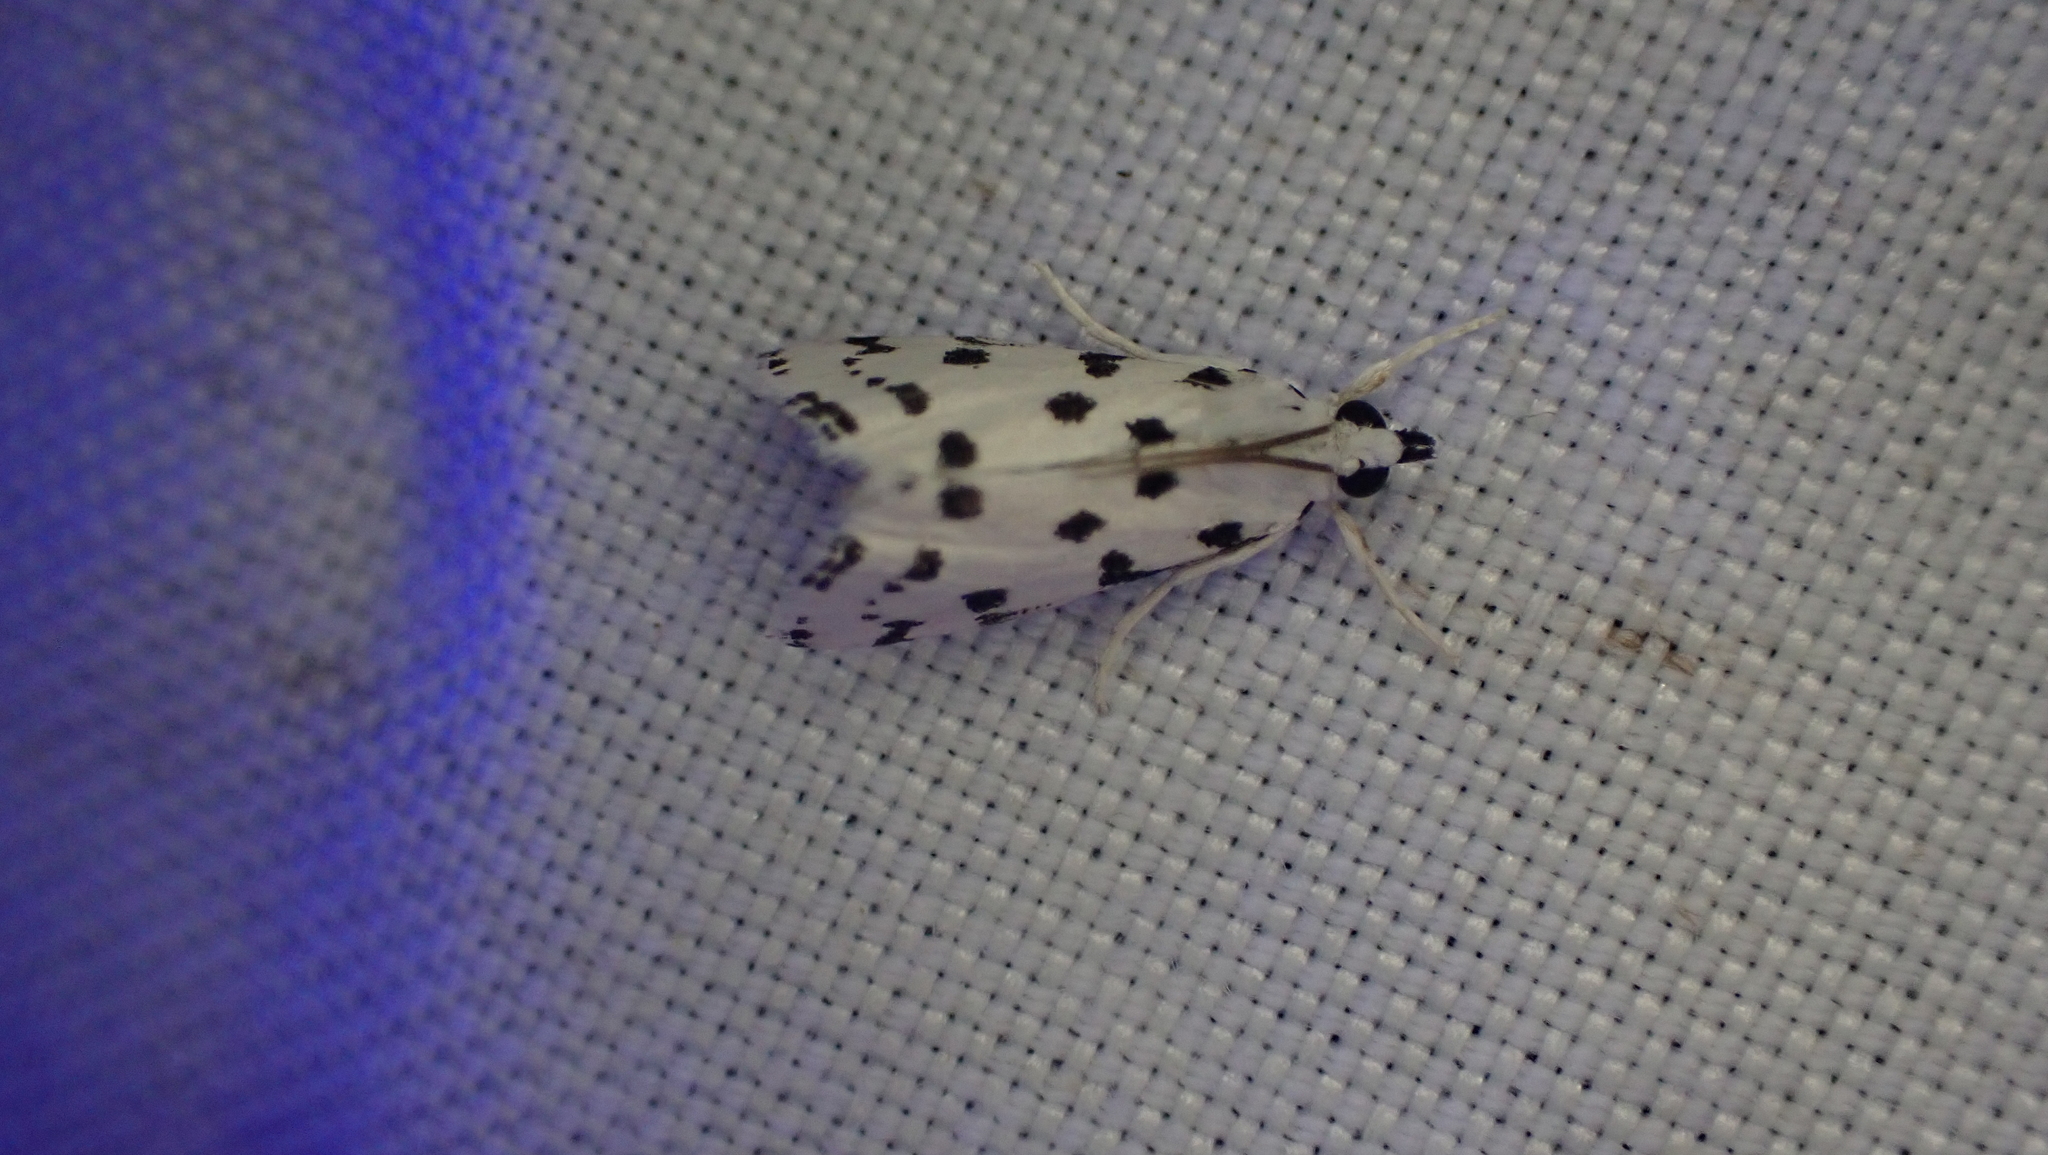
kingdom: Animalia
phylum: Arthropoda
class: Insecta
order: Lepidoptera
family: Crambidae
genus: Eustixia
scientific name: Eustixia pupula
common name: American cabbage pearl
